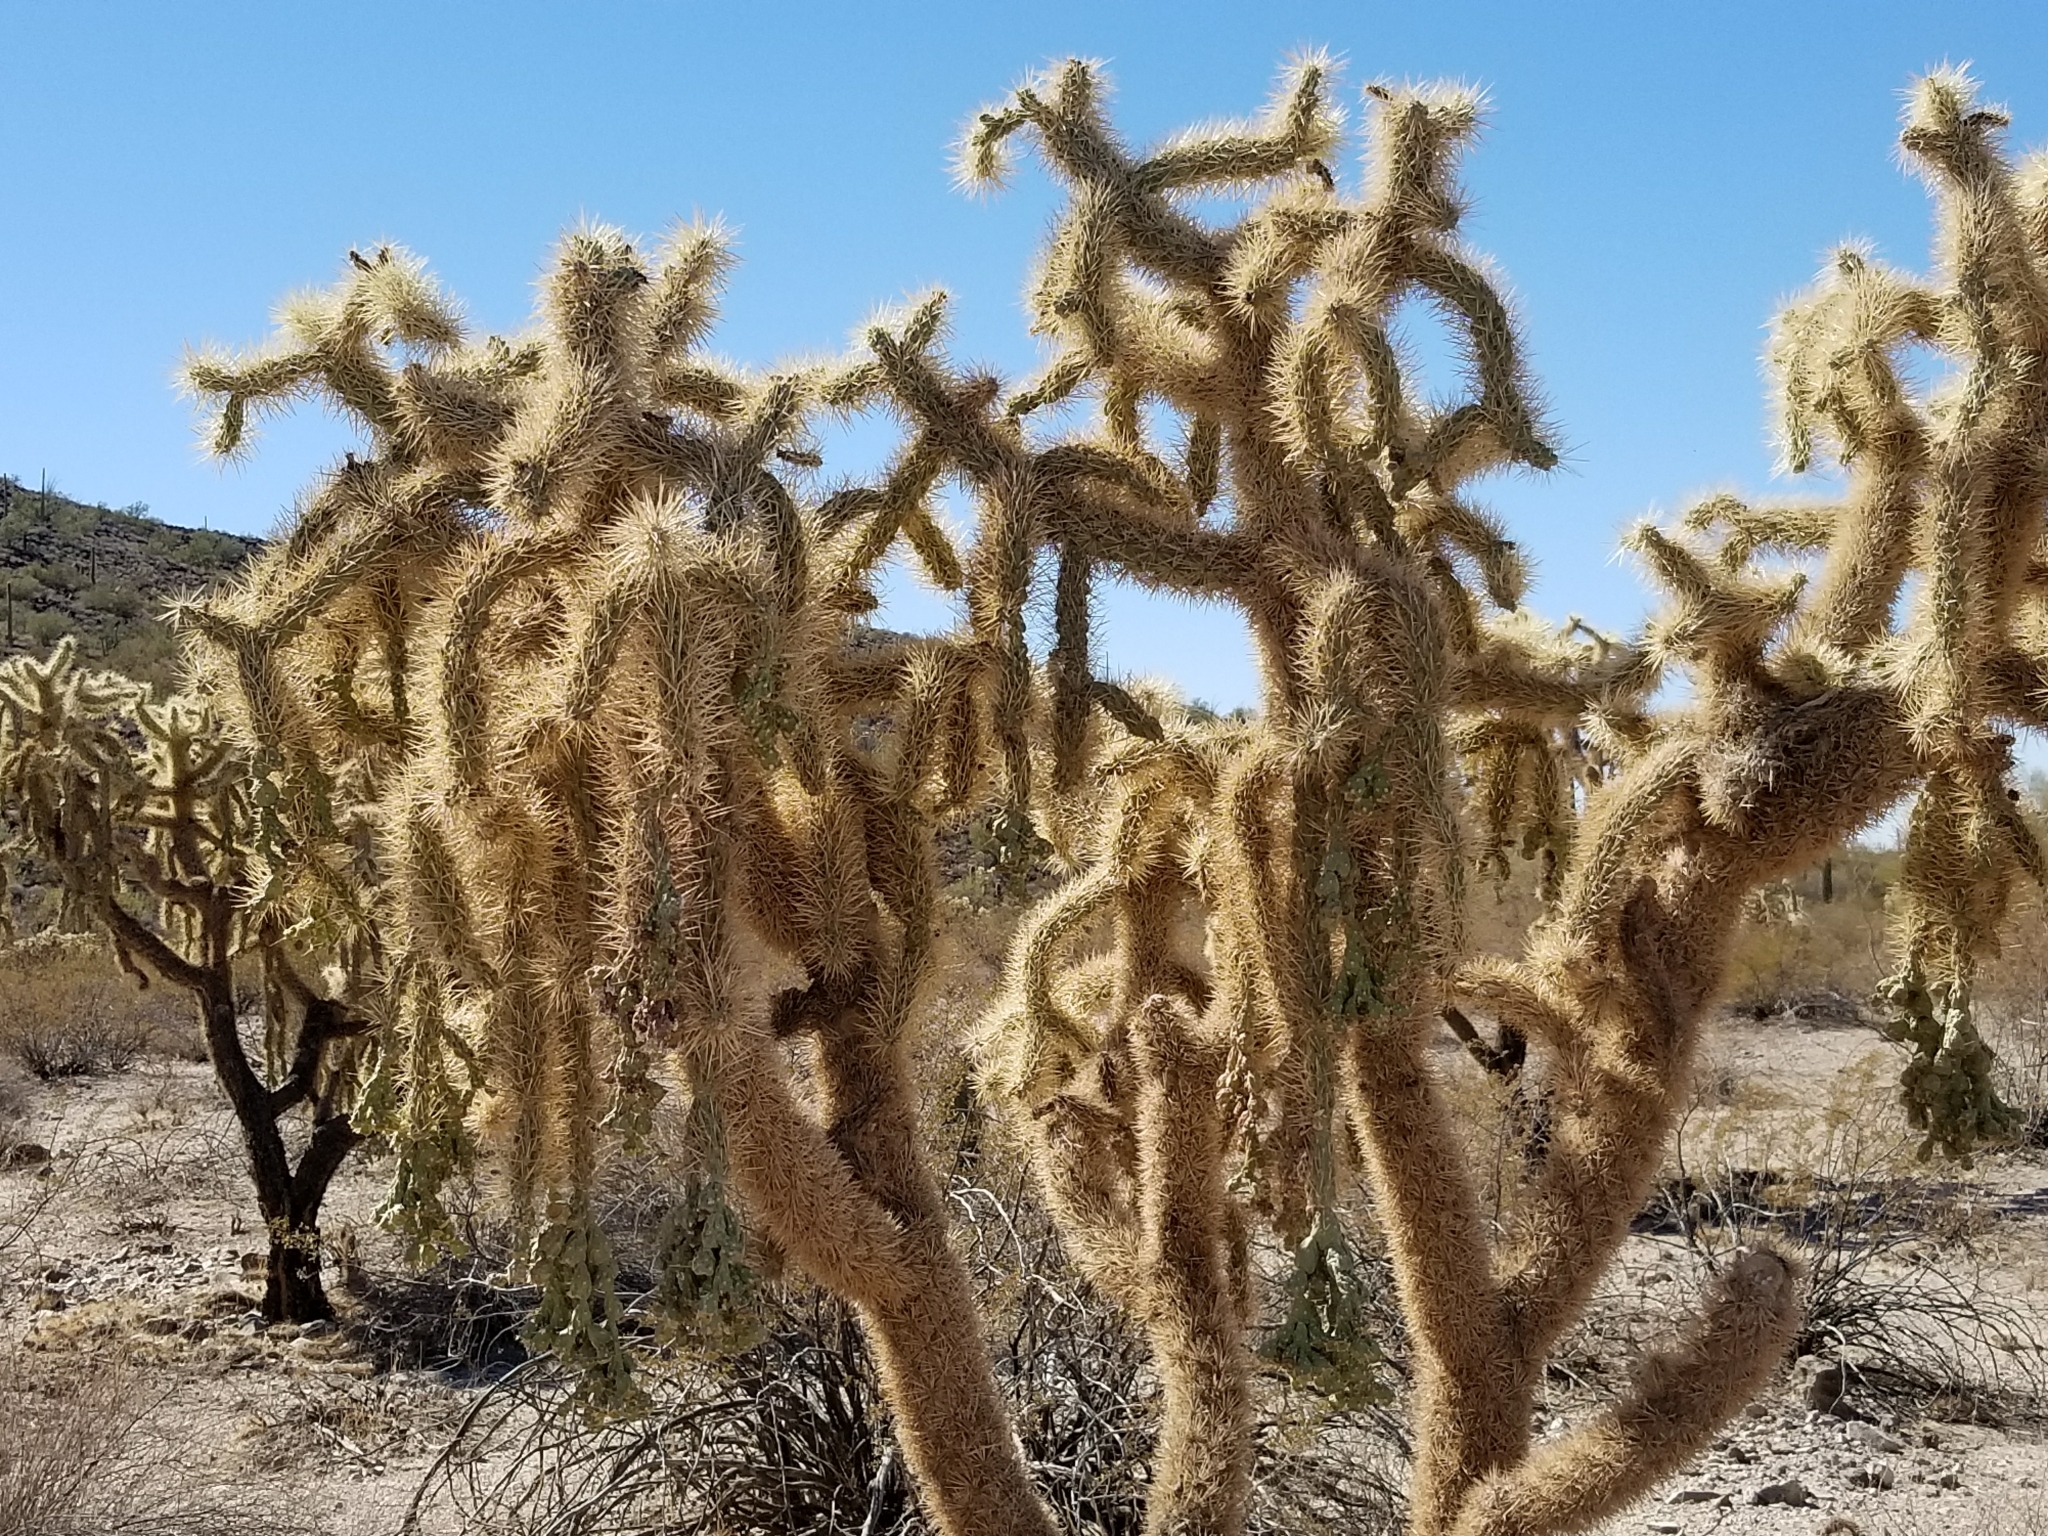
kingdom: Plantae
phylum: Tracheophyta
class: Magnoliopsida
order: Caryophyllales
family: Cactaceae
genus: Cylindropuntia
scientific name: Cylindropuntia fulgida
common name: Jumping cholla
